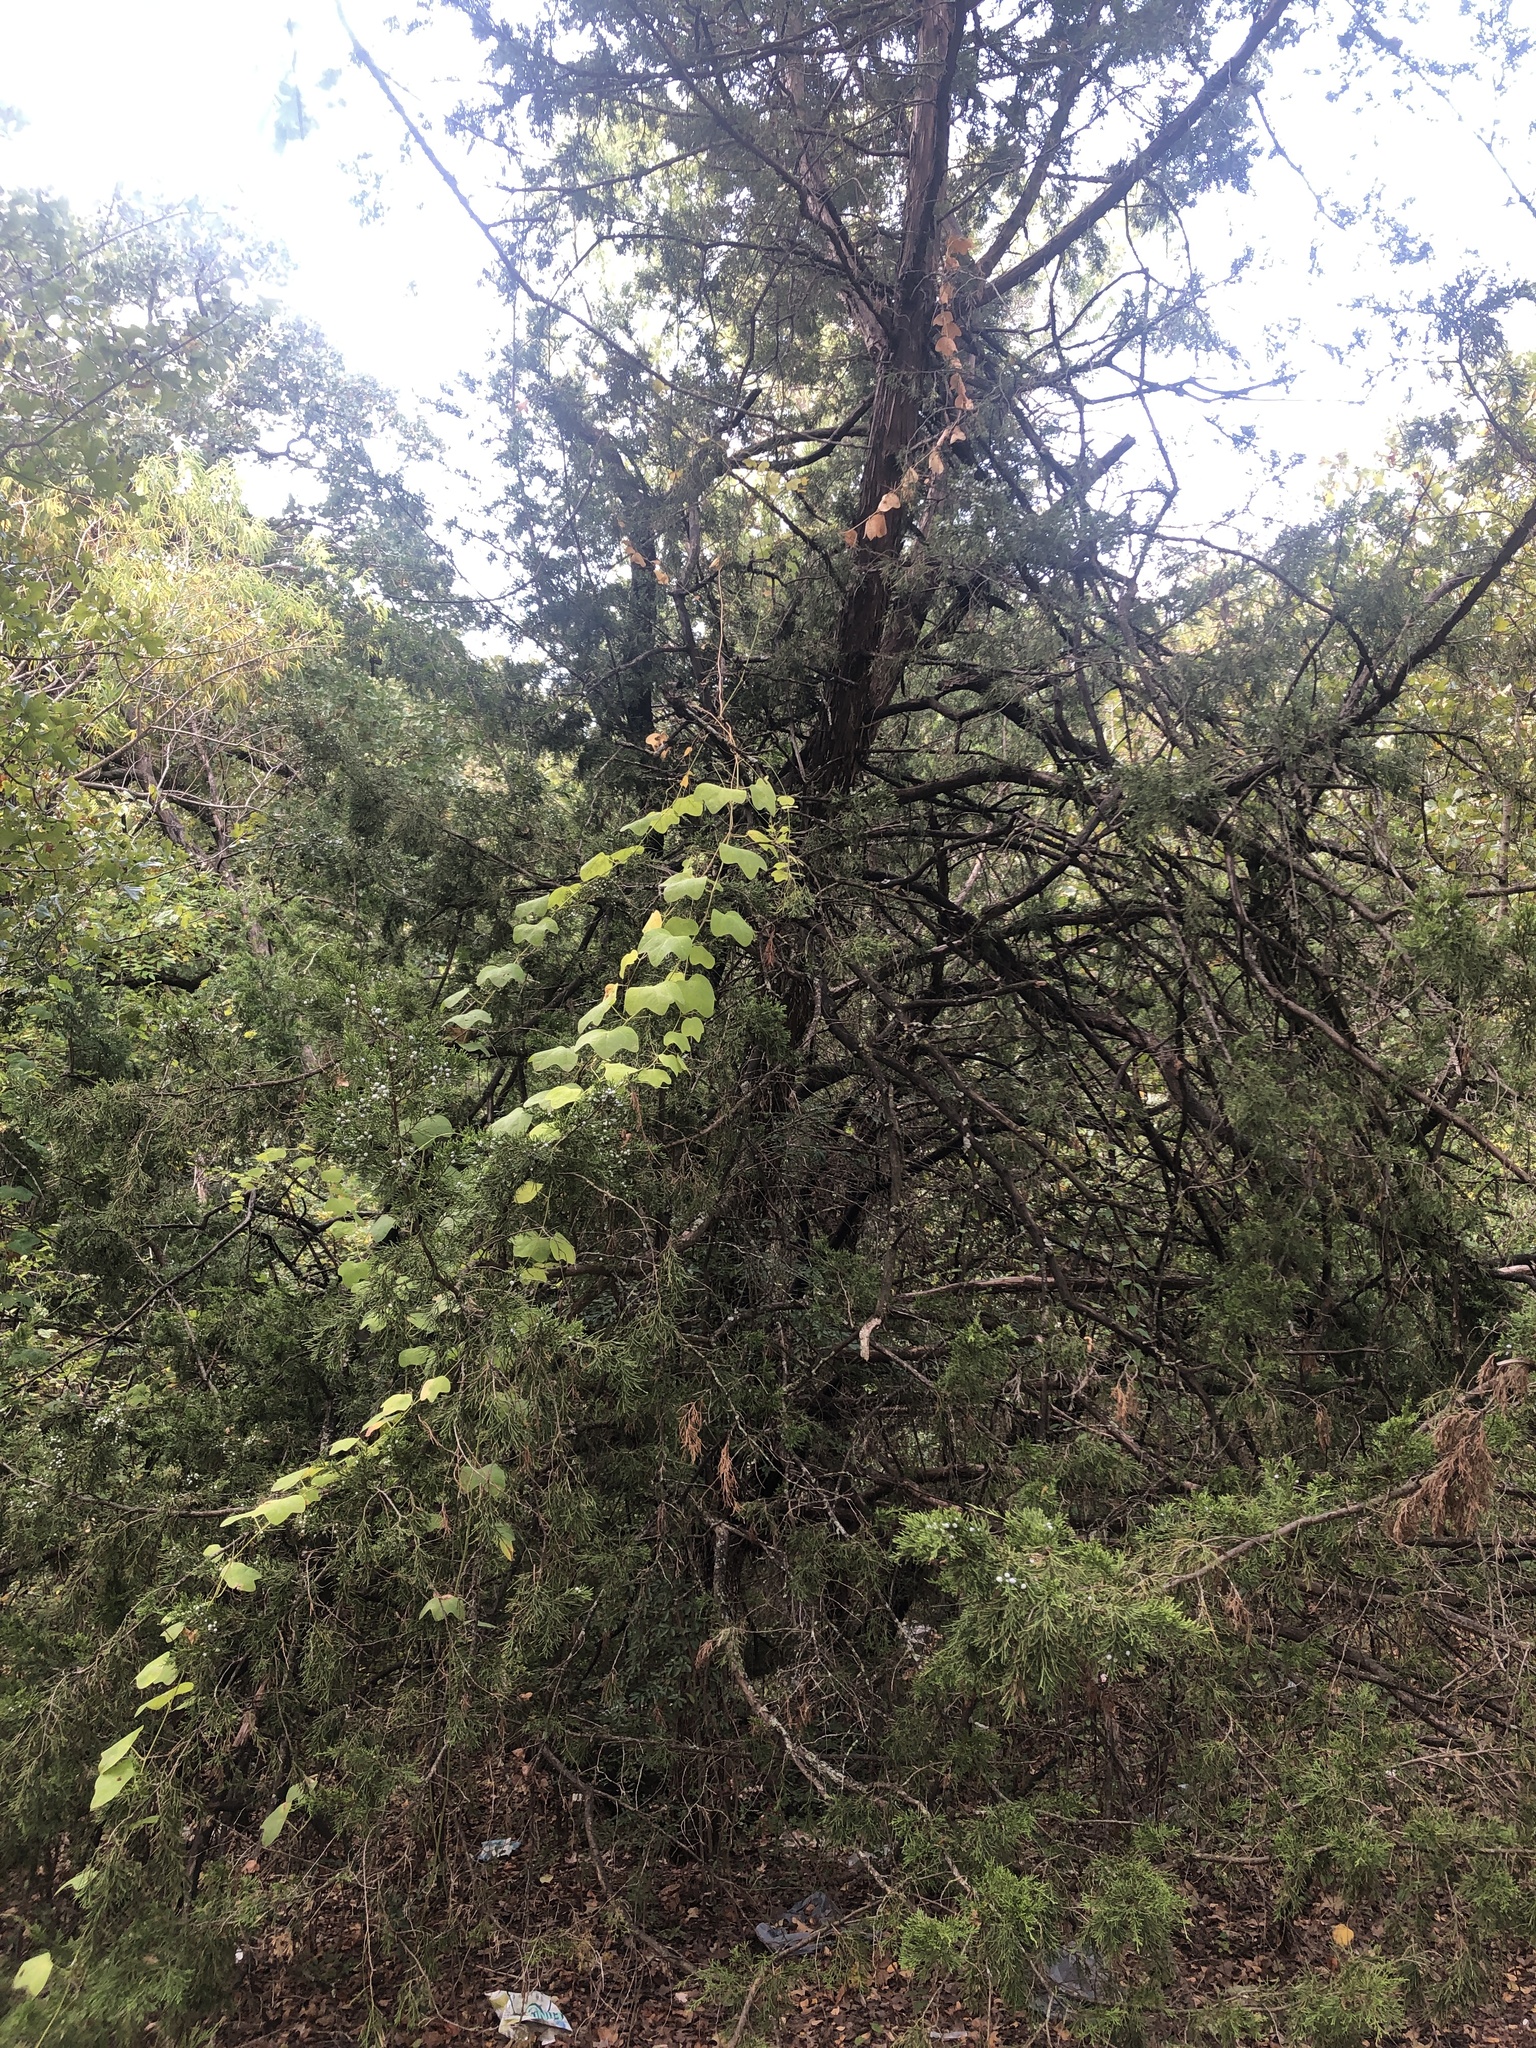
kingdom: Plantae
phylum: Tracheophyta
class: Pinopsida
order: Pinales
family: Cupressaceae
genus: Juniperus
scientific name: Juniperus virginiana
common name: Red juniper
